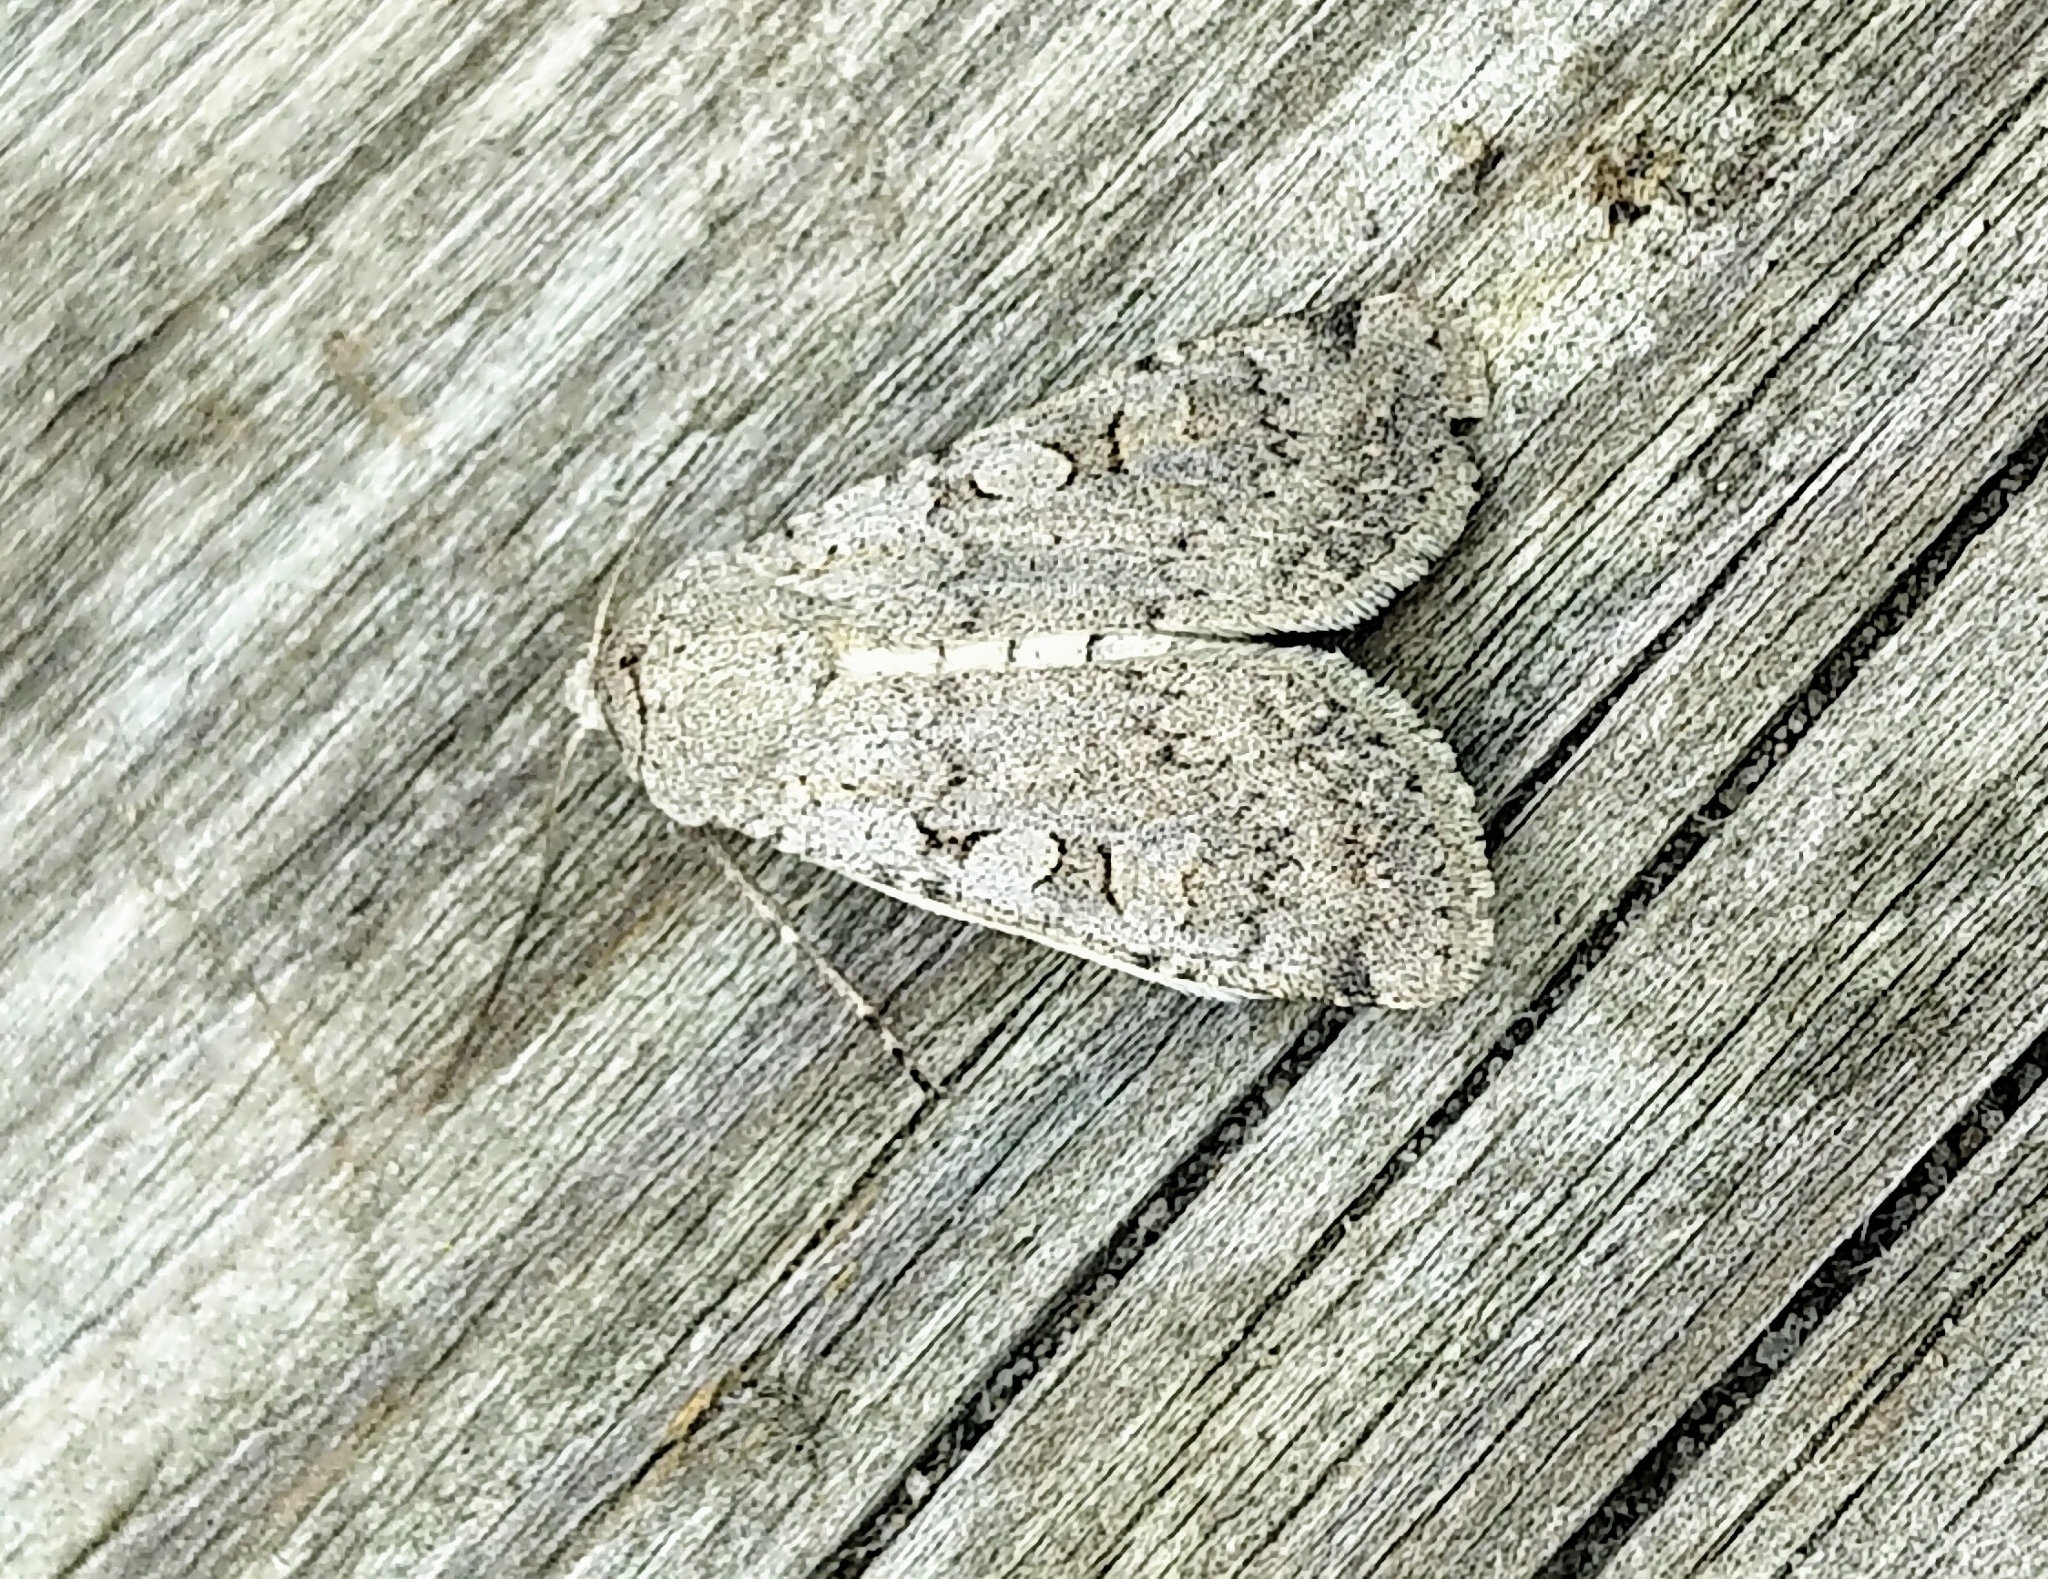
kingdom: Animalia
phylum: Arthropoda
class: Insecta
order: Lepidoptera
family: Noctuidae
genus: Euxoa
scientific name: Euxoa tristicula
